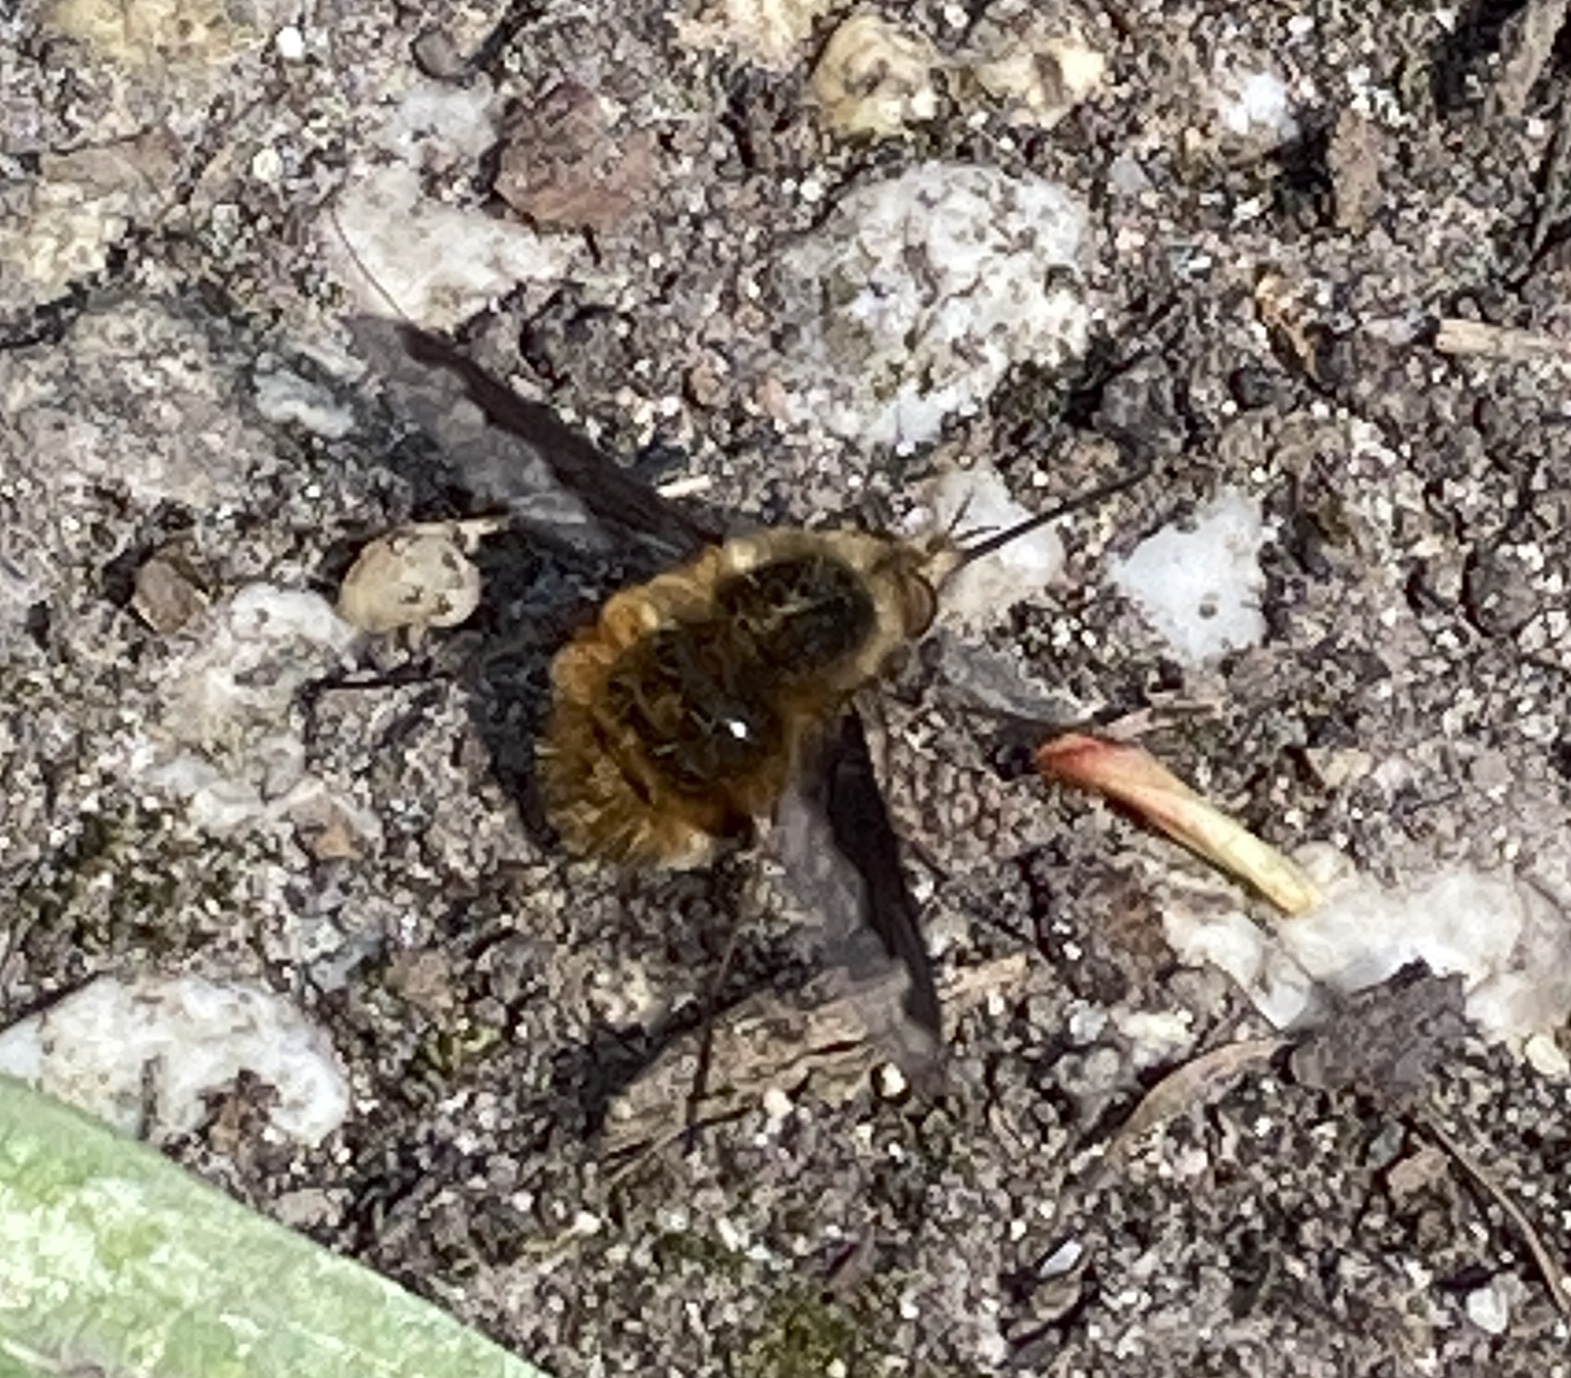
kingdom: Animalia
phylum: Arthropoda
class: Insecta
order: Diptera
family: Bombyliidae
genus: Bombylius
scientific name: Bombylius major
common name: Bee fly
